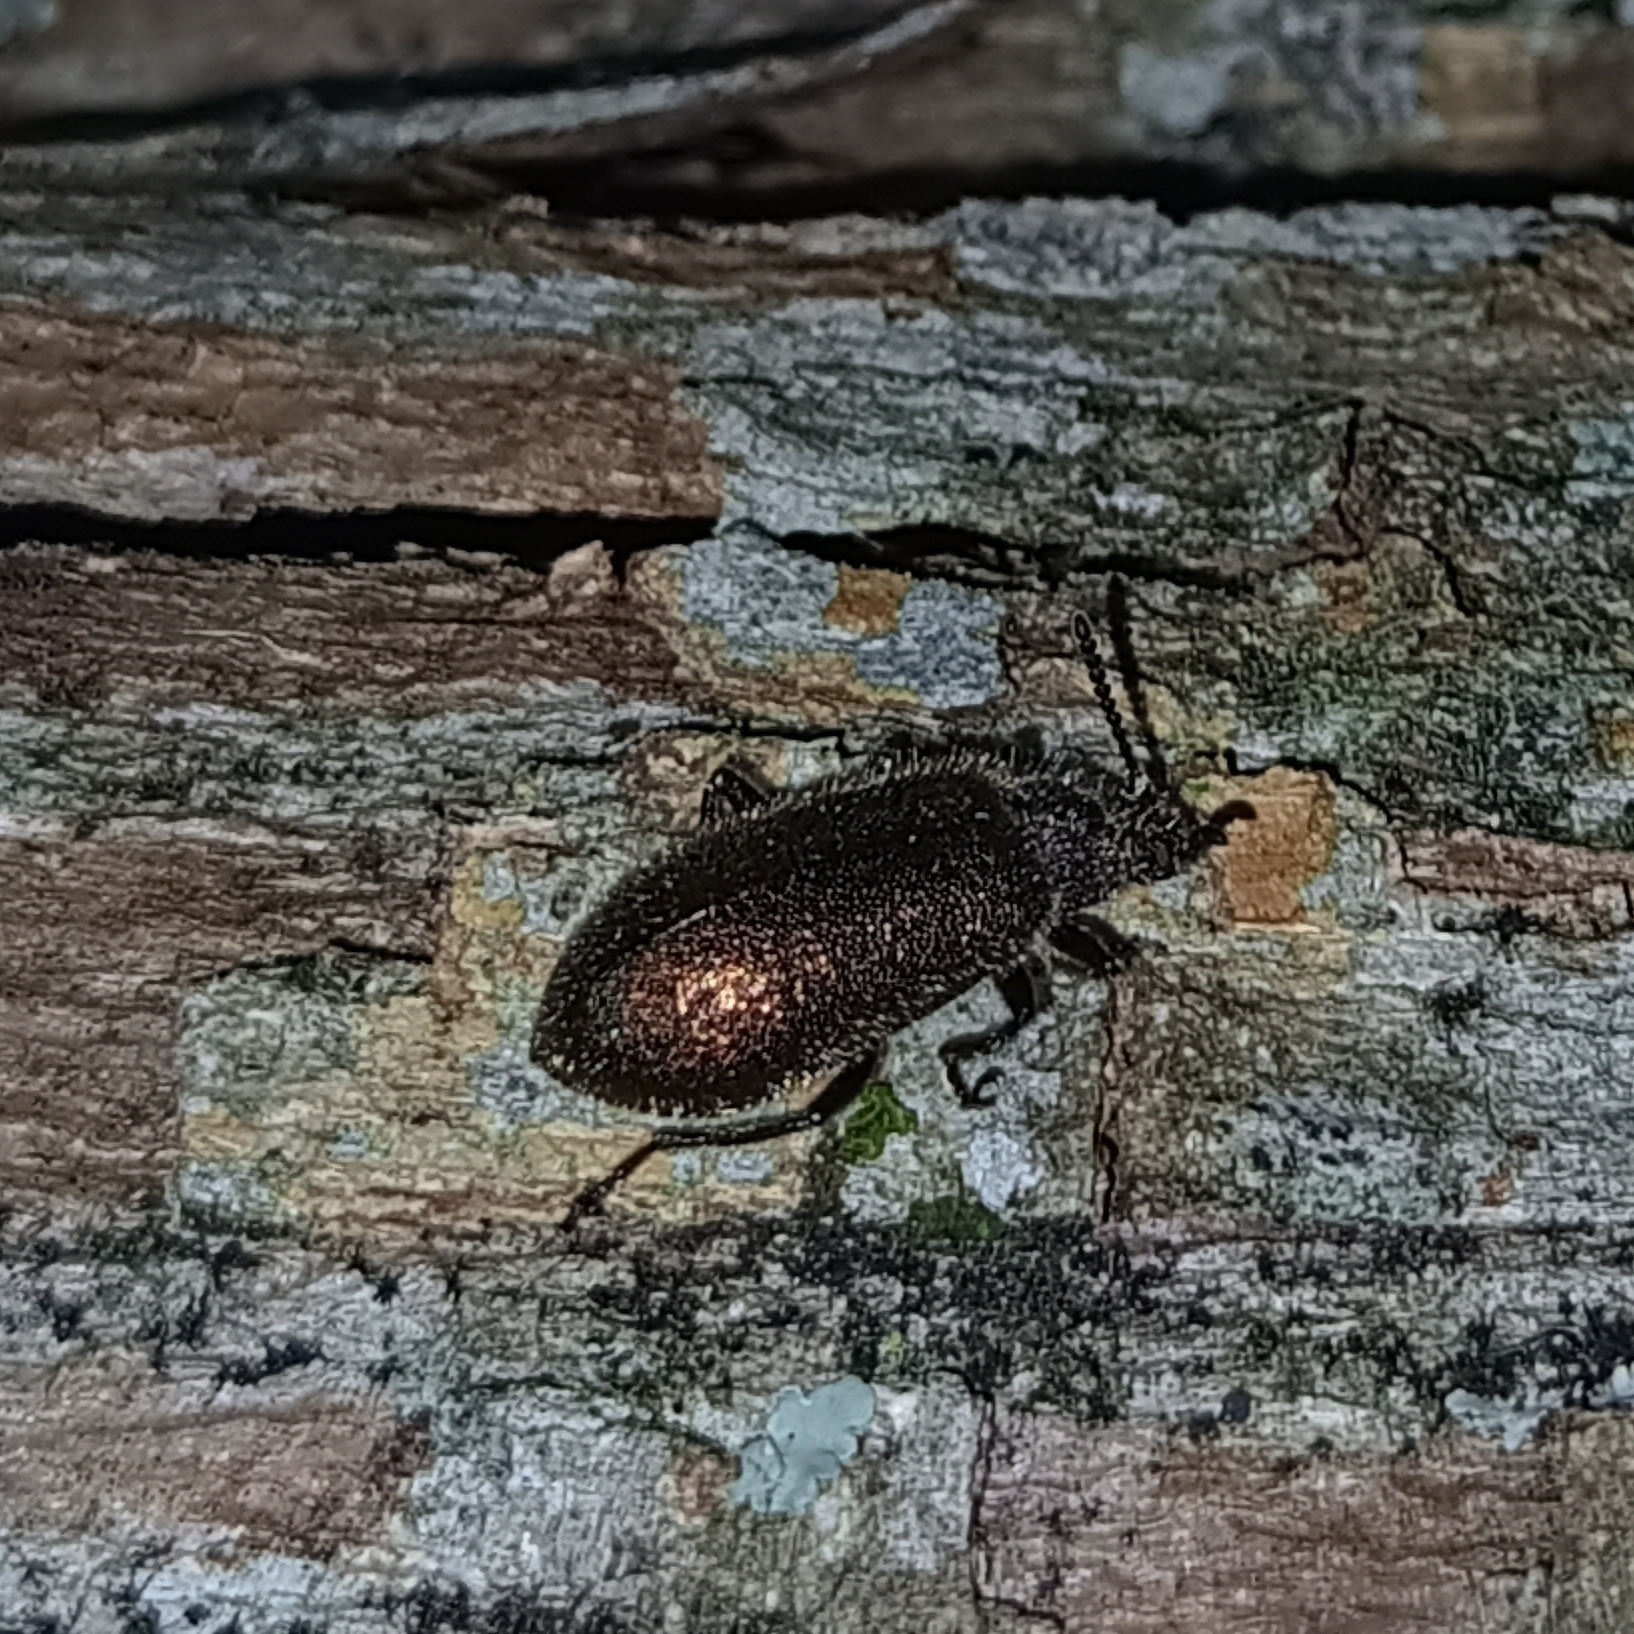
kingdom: Animalia
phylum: Arthropoda
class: Insecta
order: Coleoptera
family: Tenebrionidae
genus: Lagria
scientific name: Lagria villosa
